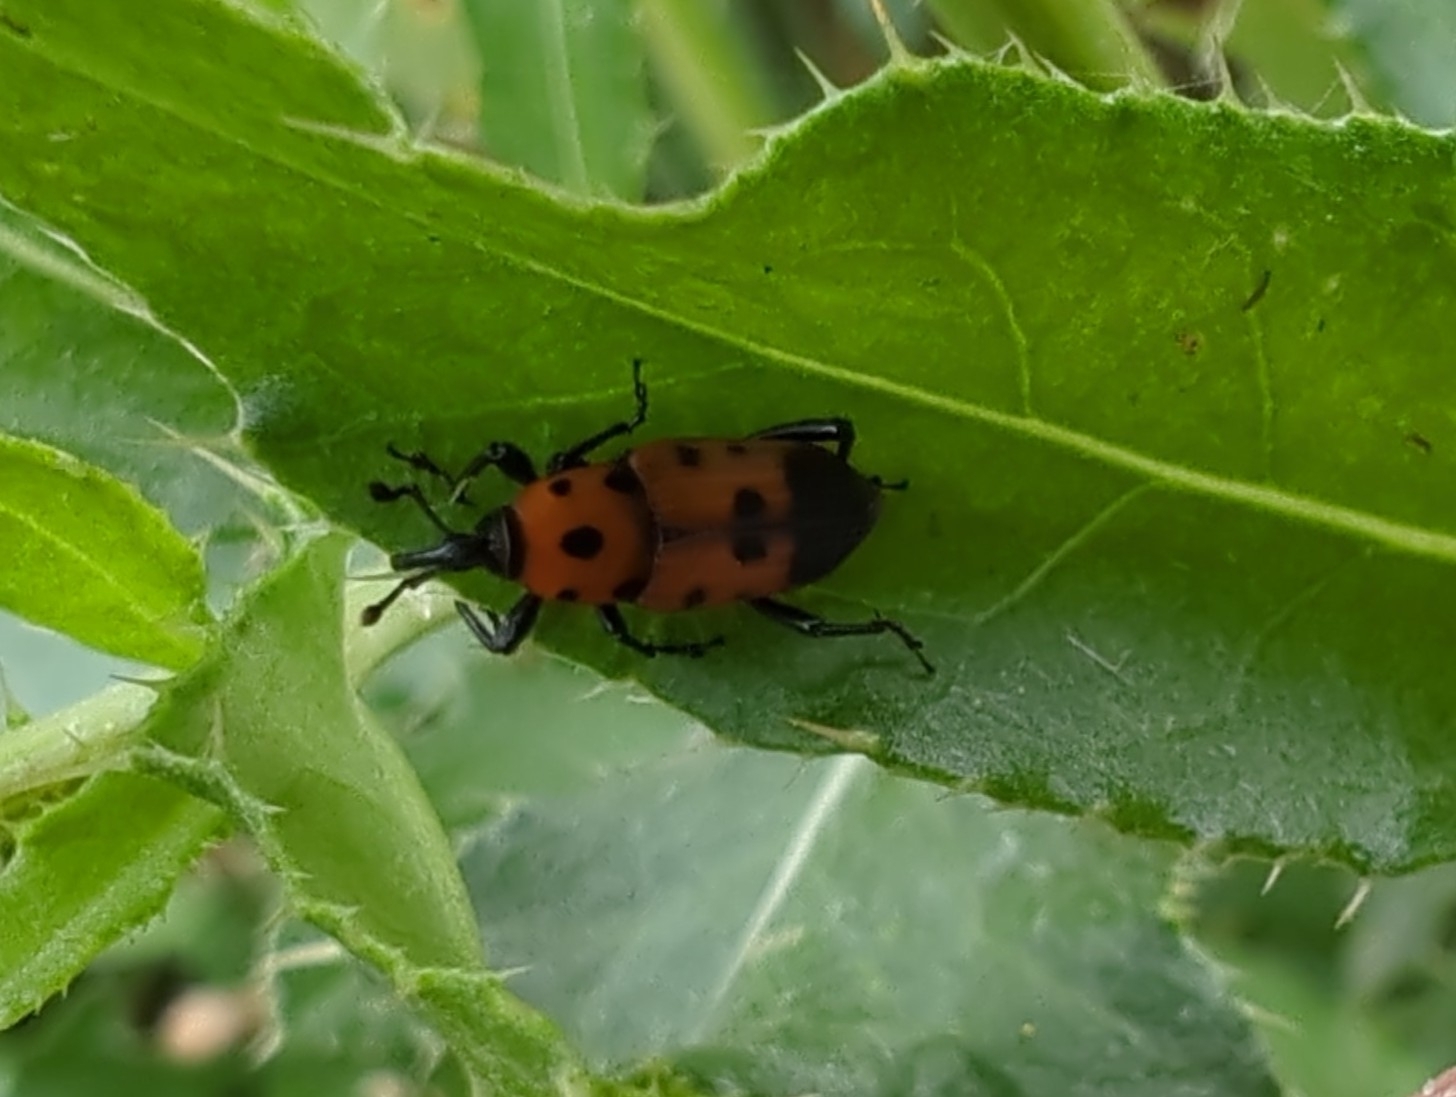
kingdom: Animalia
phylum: Arthropoda
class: Insecta
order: Coleoptera
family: Dryophthoridae
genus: Rhodobaenus
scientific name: Rhodobaenus quinquepunctatus
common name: Cocklebur weevil
